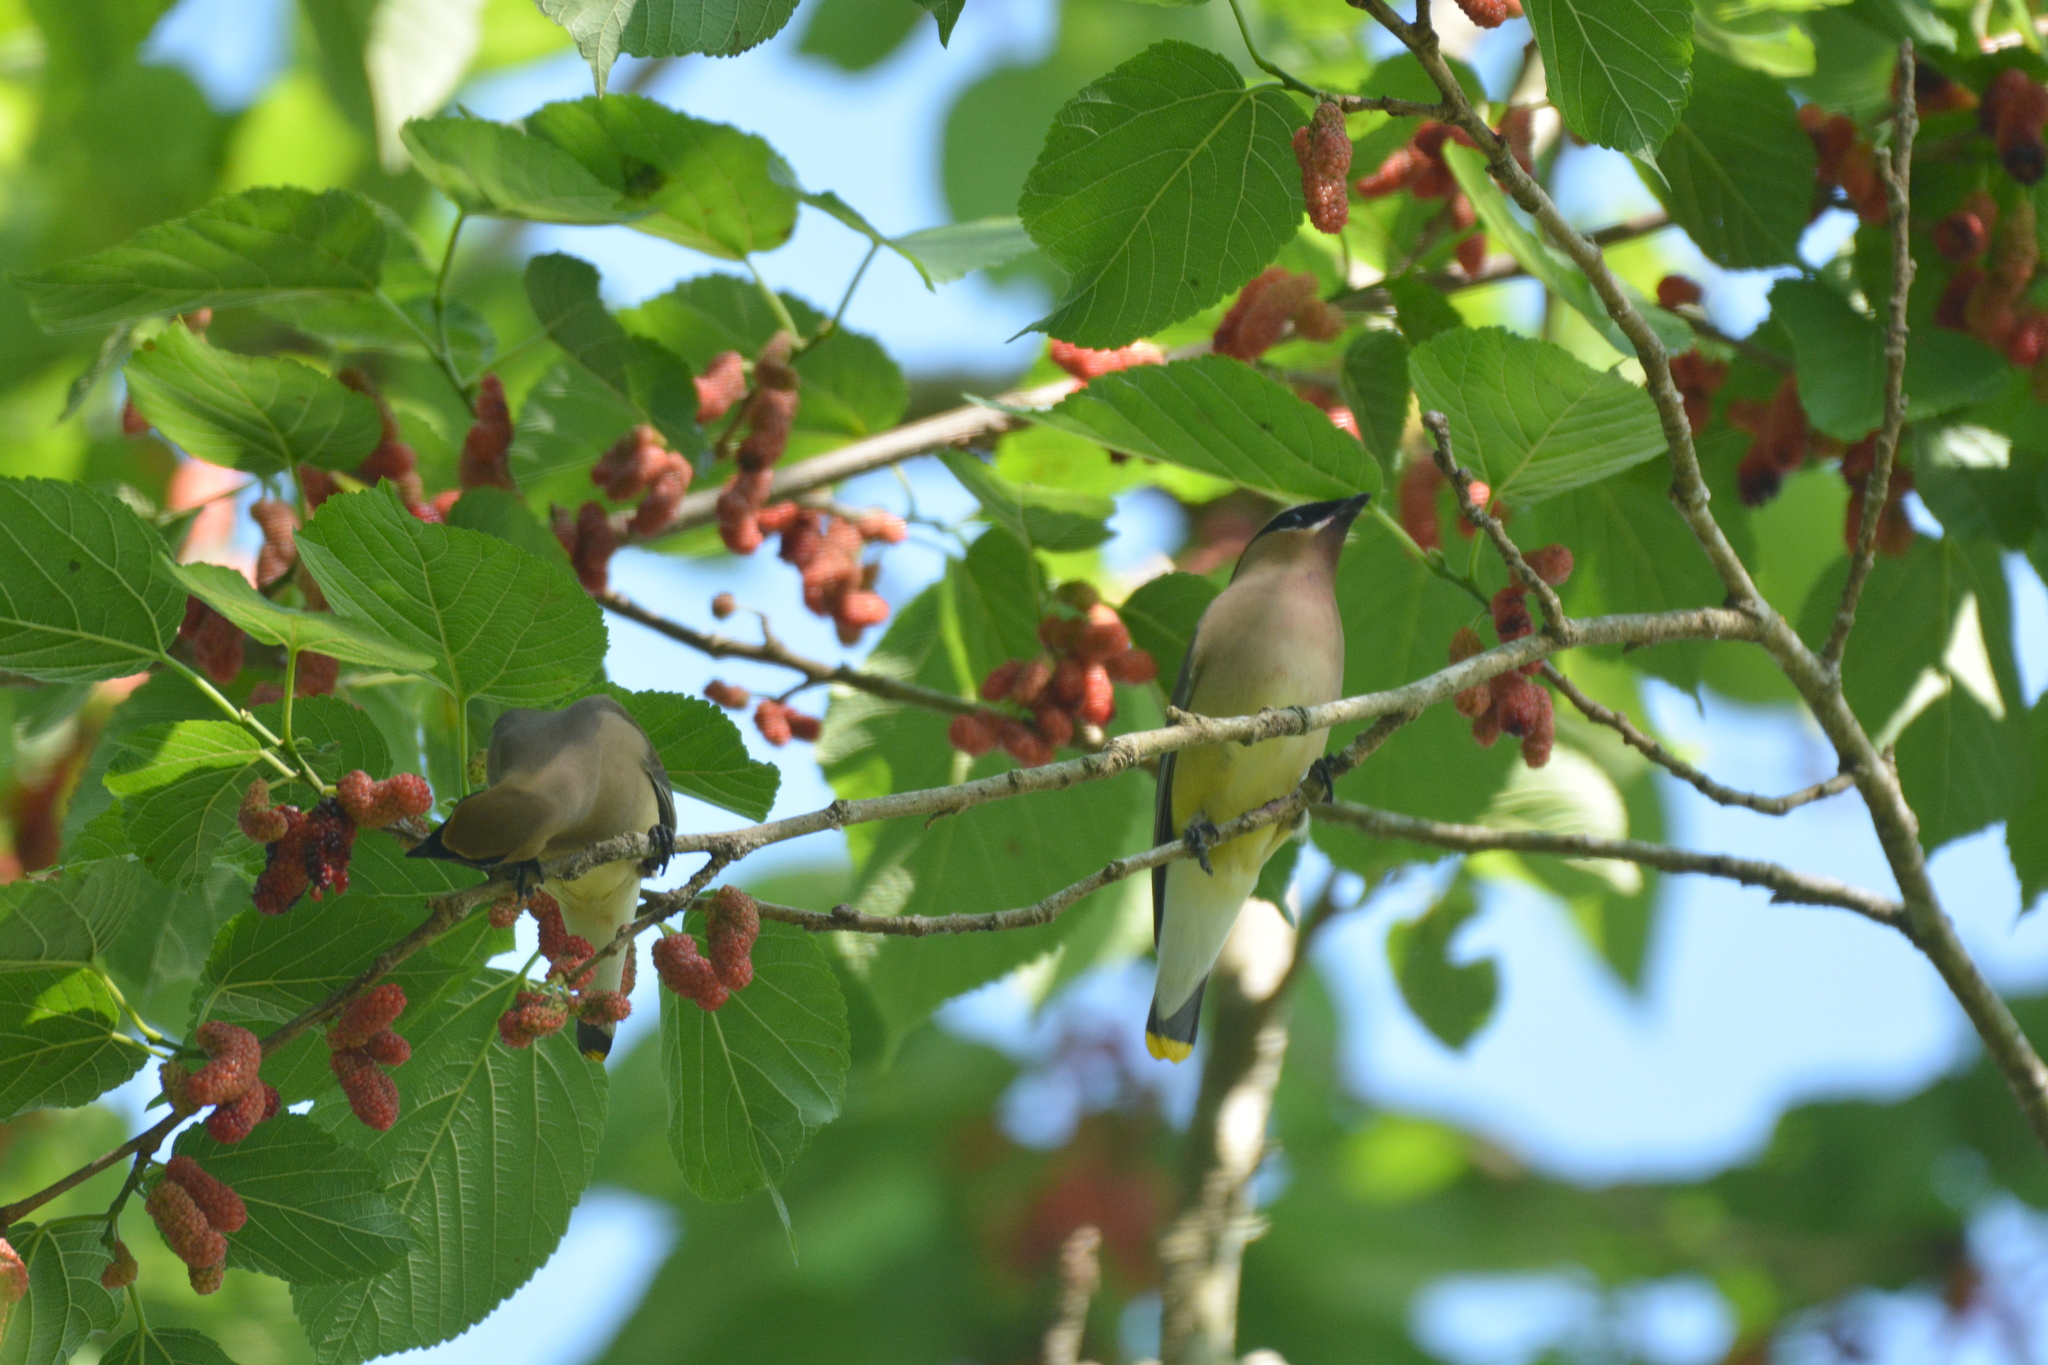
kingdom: Animalia
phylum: Chordata
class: Aves
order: Passeriformes
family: Bombycillidae
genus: Bombycilla
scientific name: Bombycilla cedrorum
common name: Cedar waxwing
